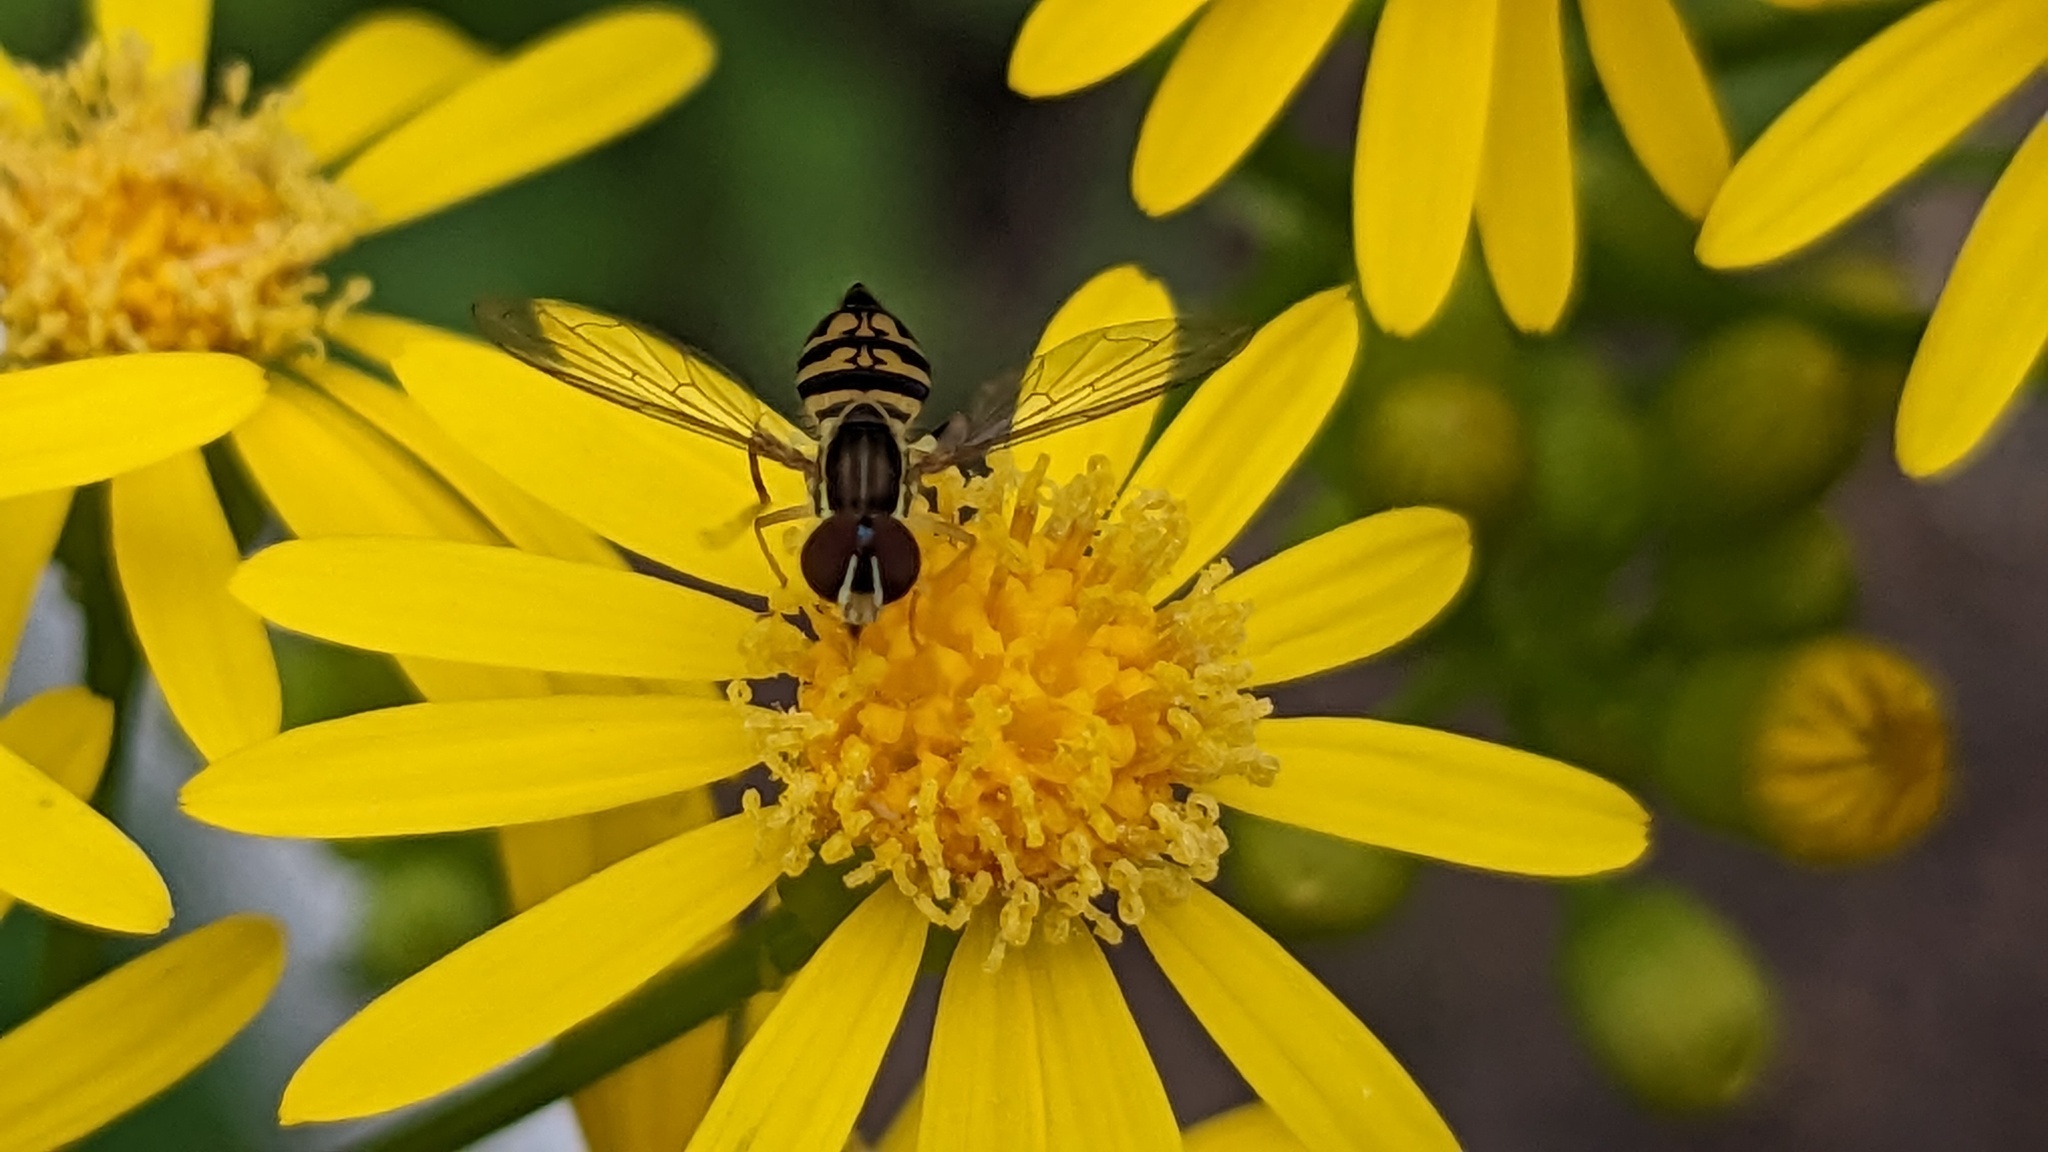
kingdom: Animalia
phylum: Arthropoda
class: Insecta
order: Diptera
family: Syrphidae
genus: Toxomerus
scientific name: Toxomerus geminatus
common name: Eastern calligrapher
